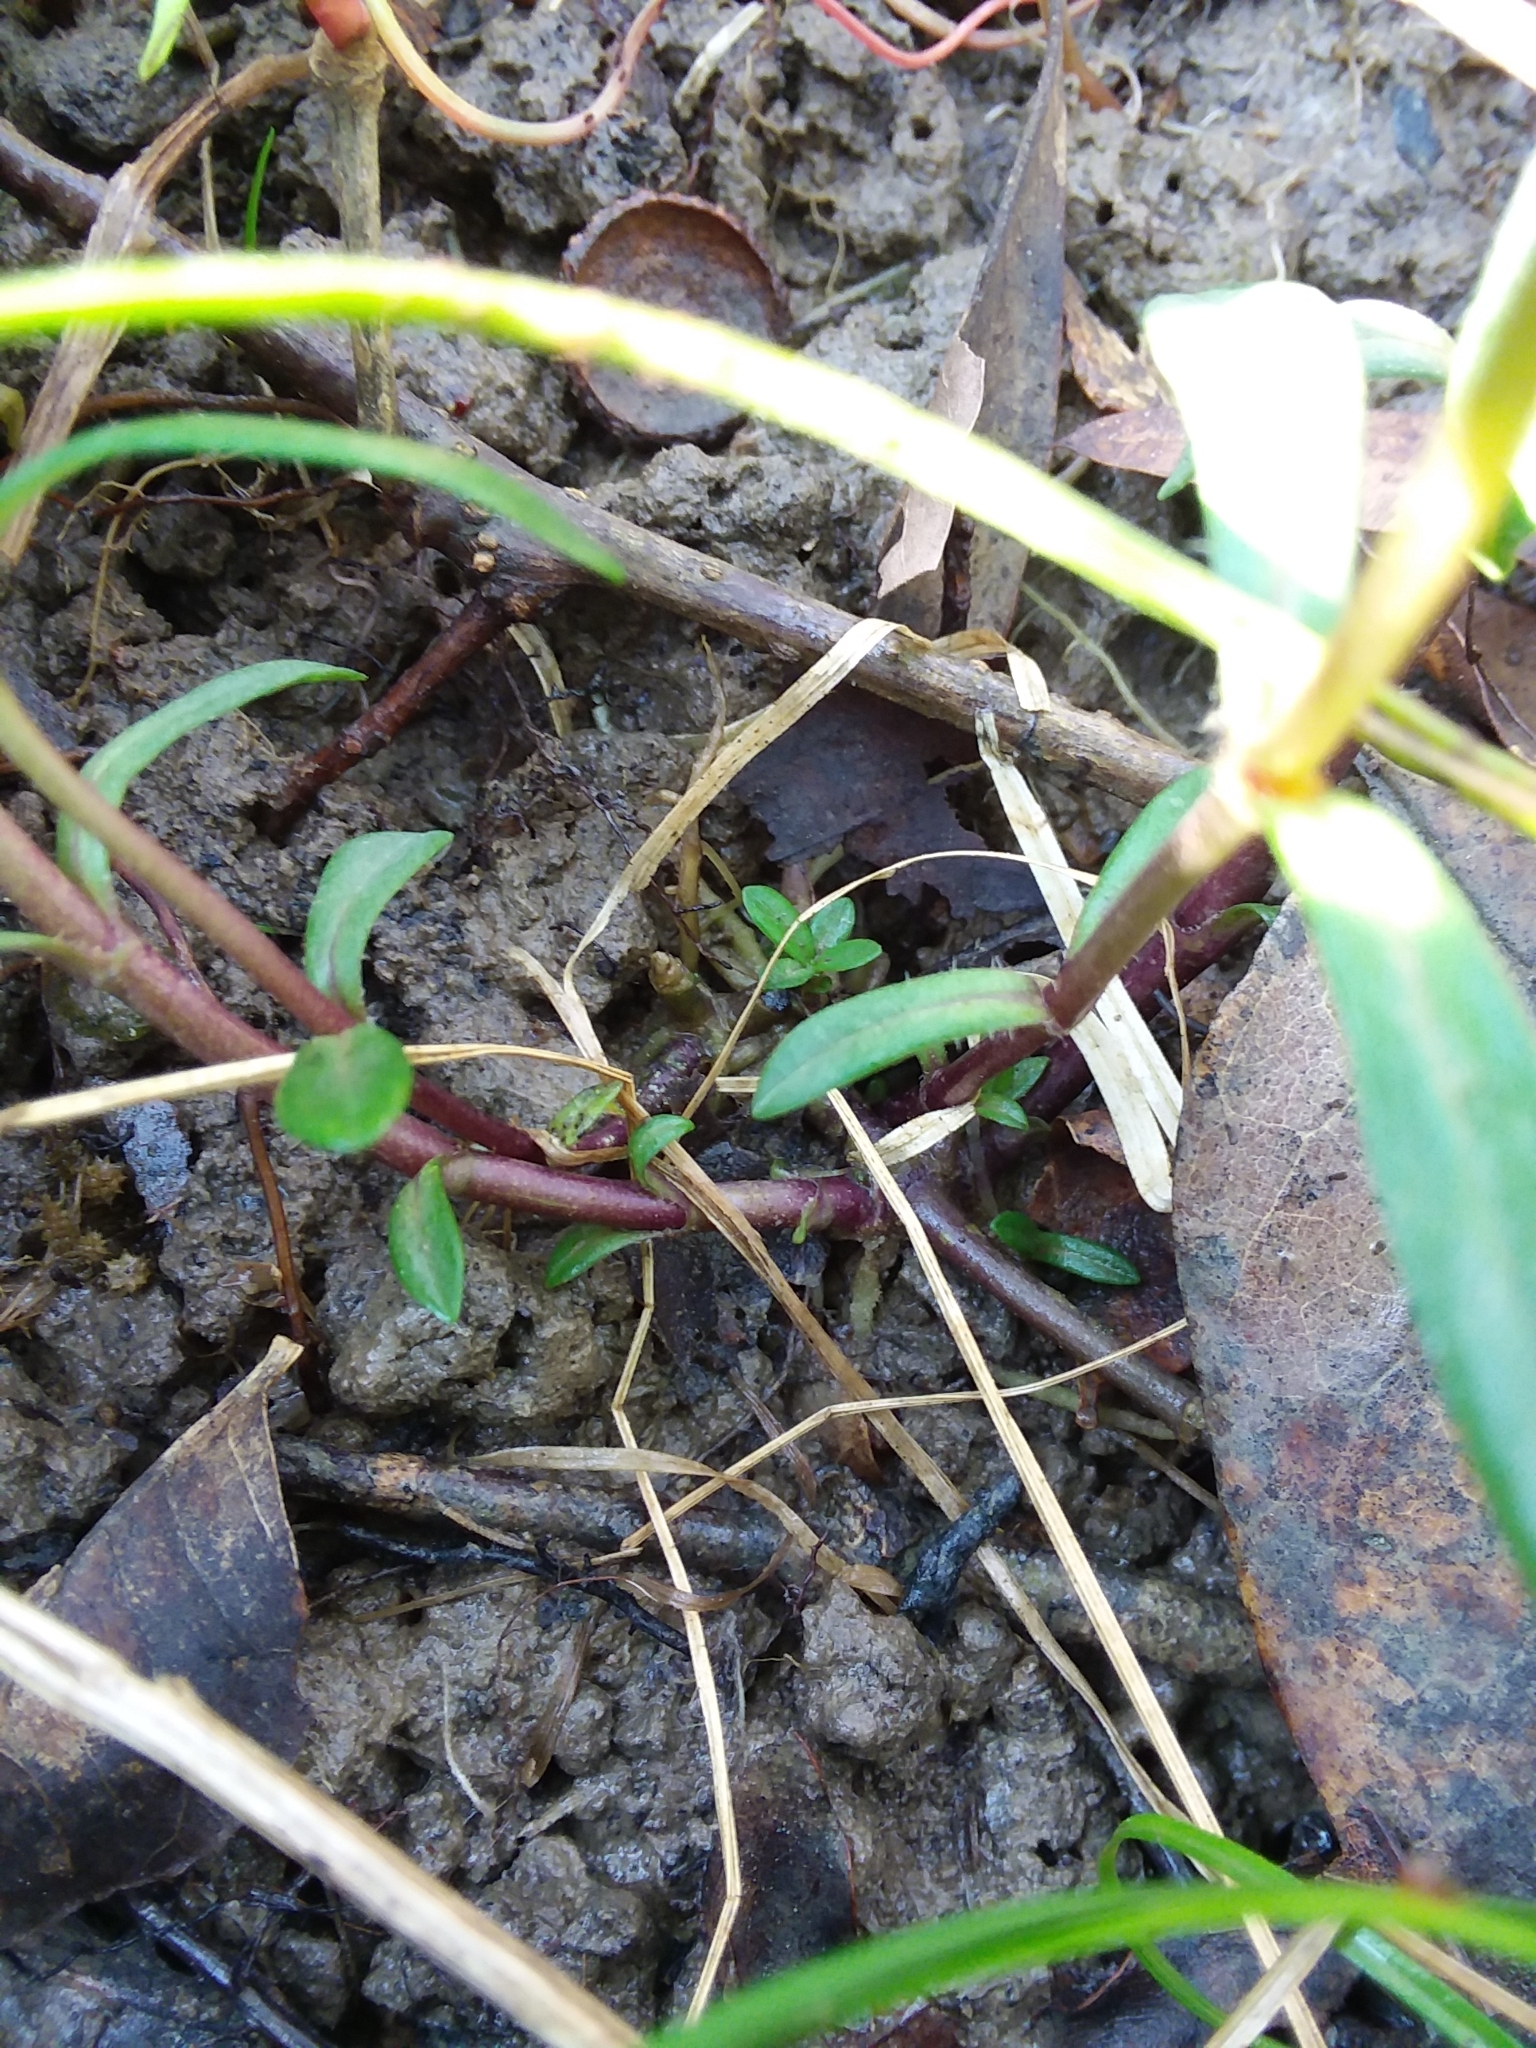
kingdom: Plantae
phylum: Tracheophyta
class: Magnoliopsida
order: Ericales
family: Polemoniaceae
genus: Phlox
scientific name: Phlox divaricata
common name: Blue phlox
